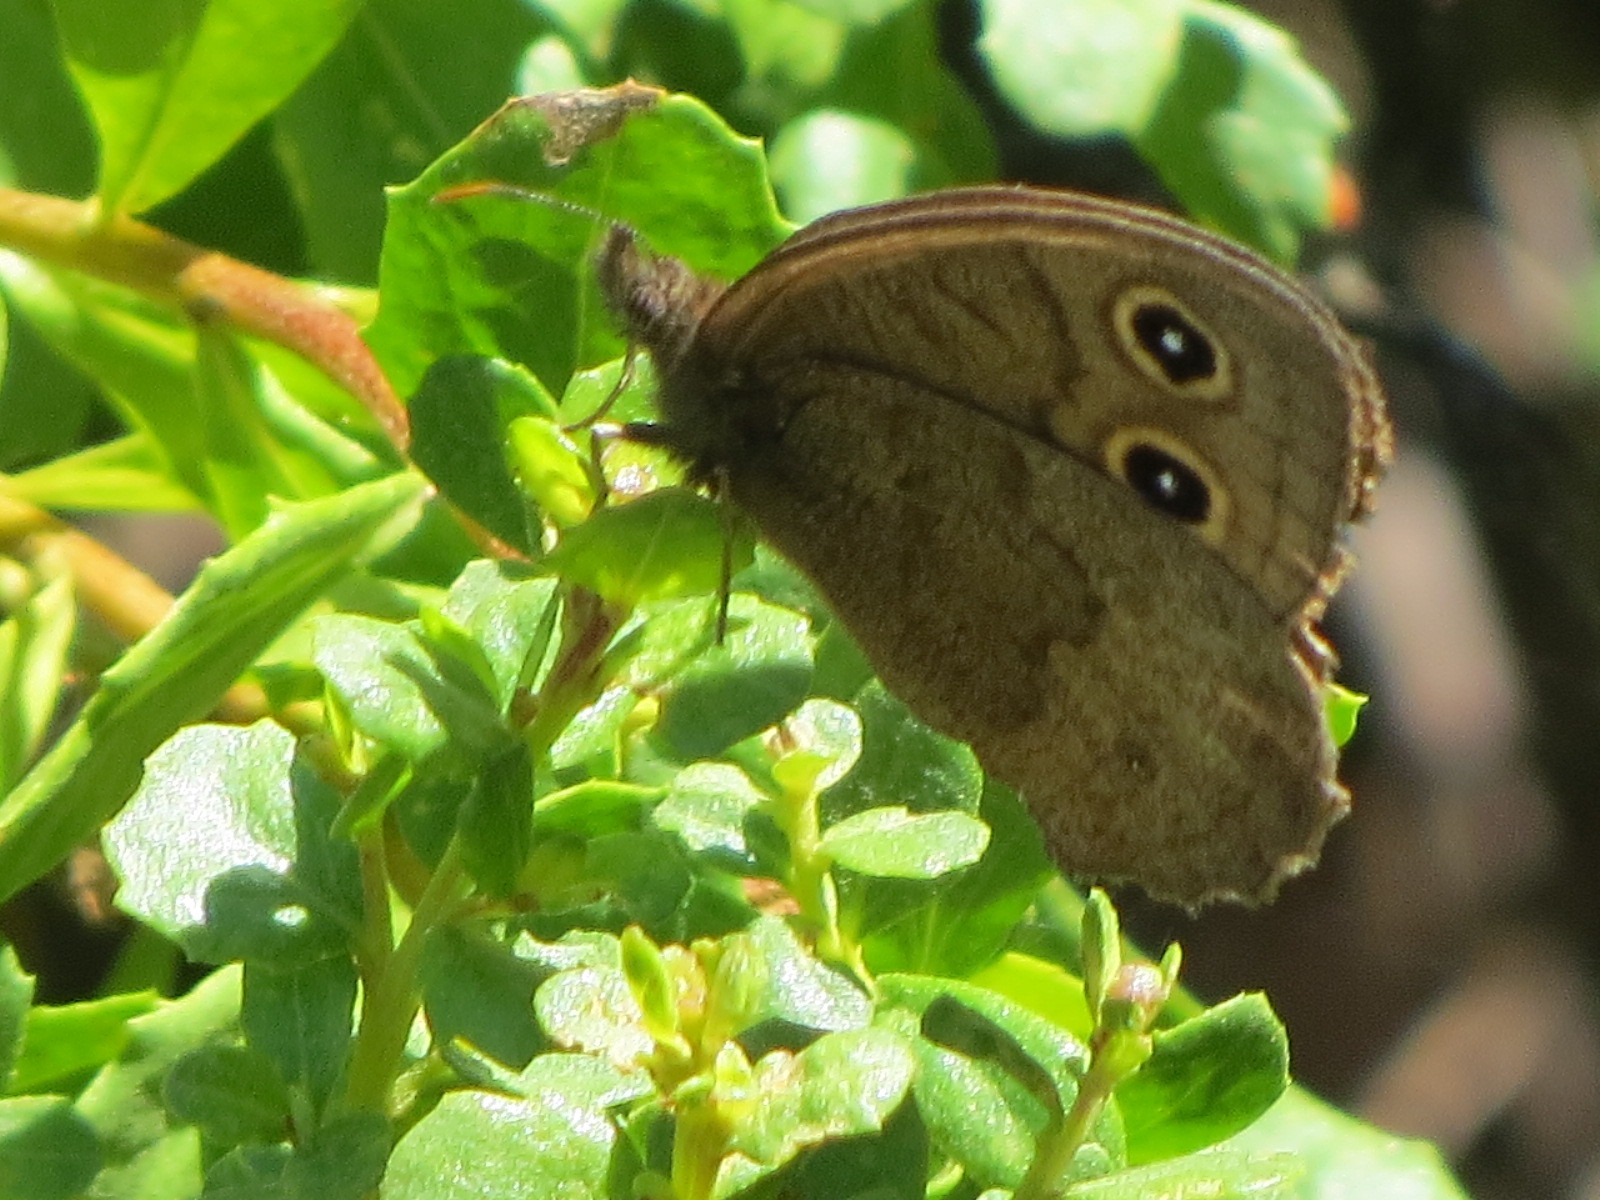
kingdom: Animalia
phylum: Arthropoda
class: Insecta
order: Lepidoptera
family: Nymphalidae
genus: Cercyonis
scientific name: Cercyonis pegala
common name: Common wood-nymph
